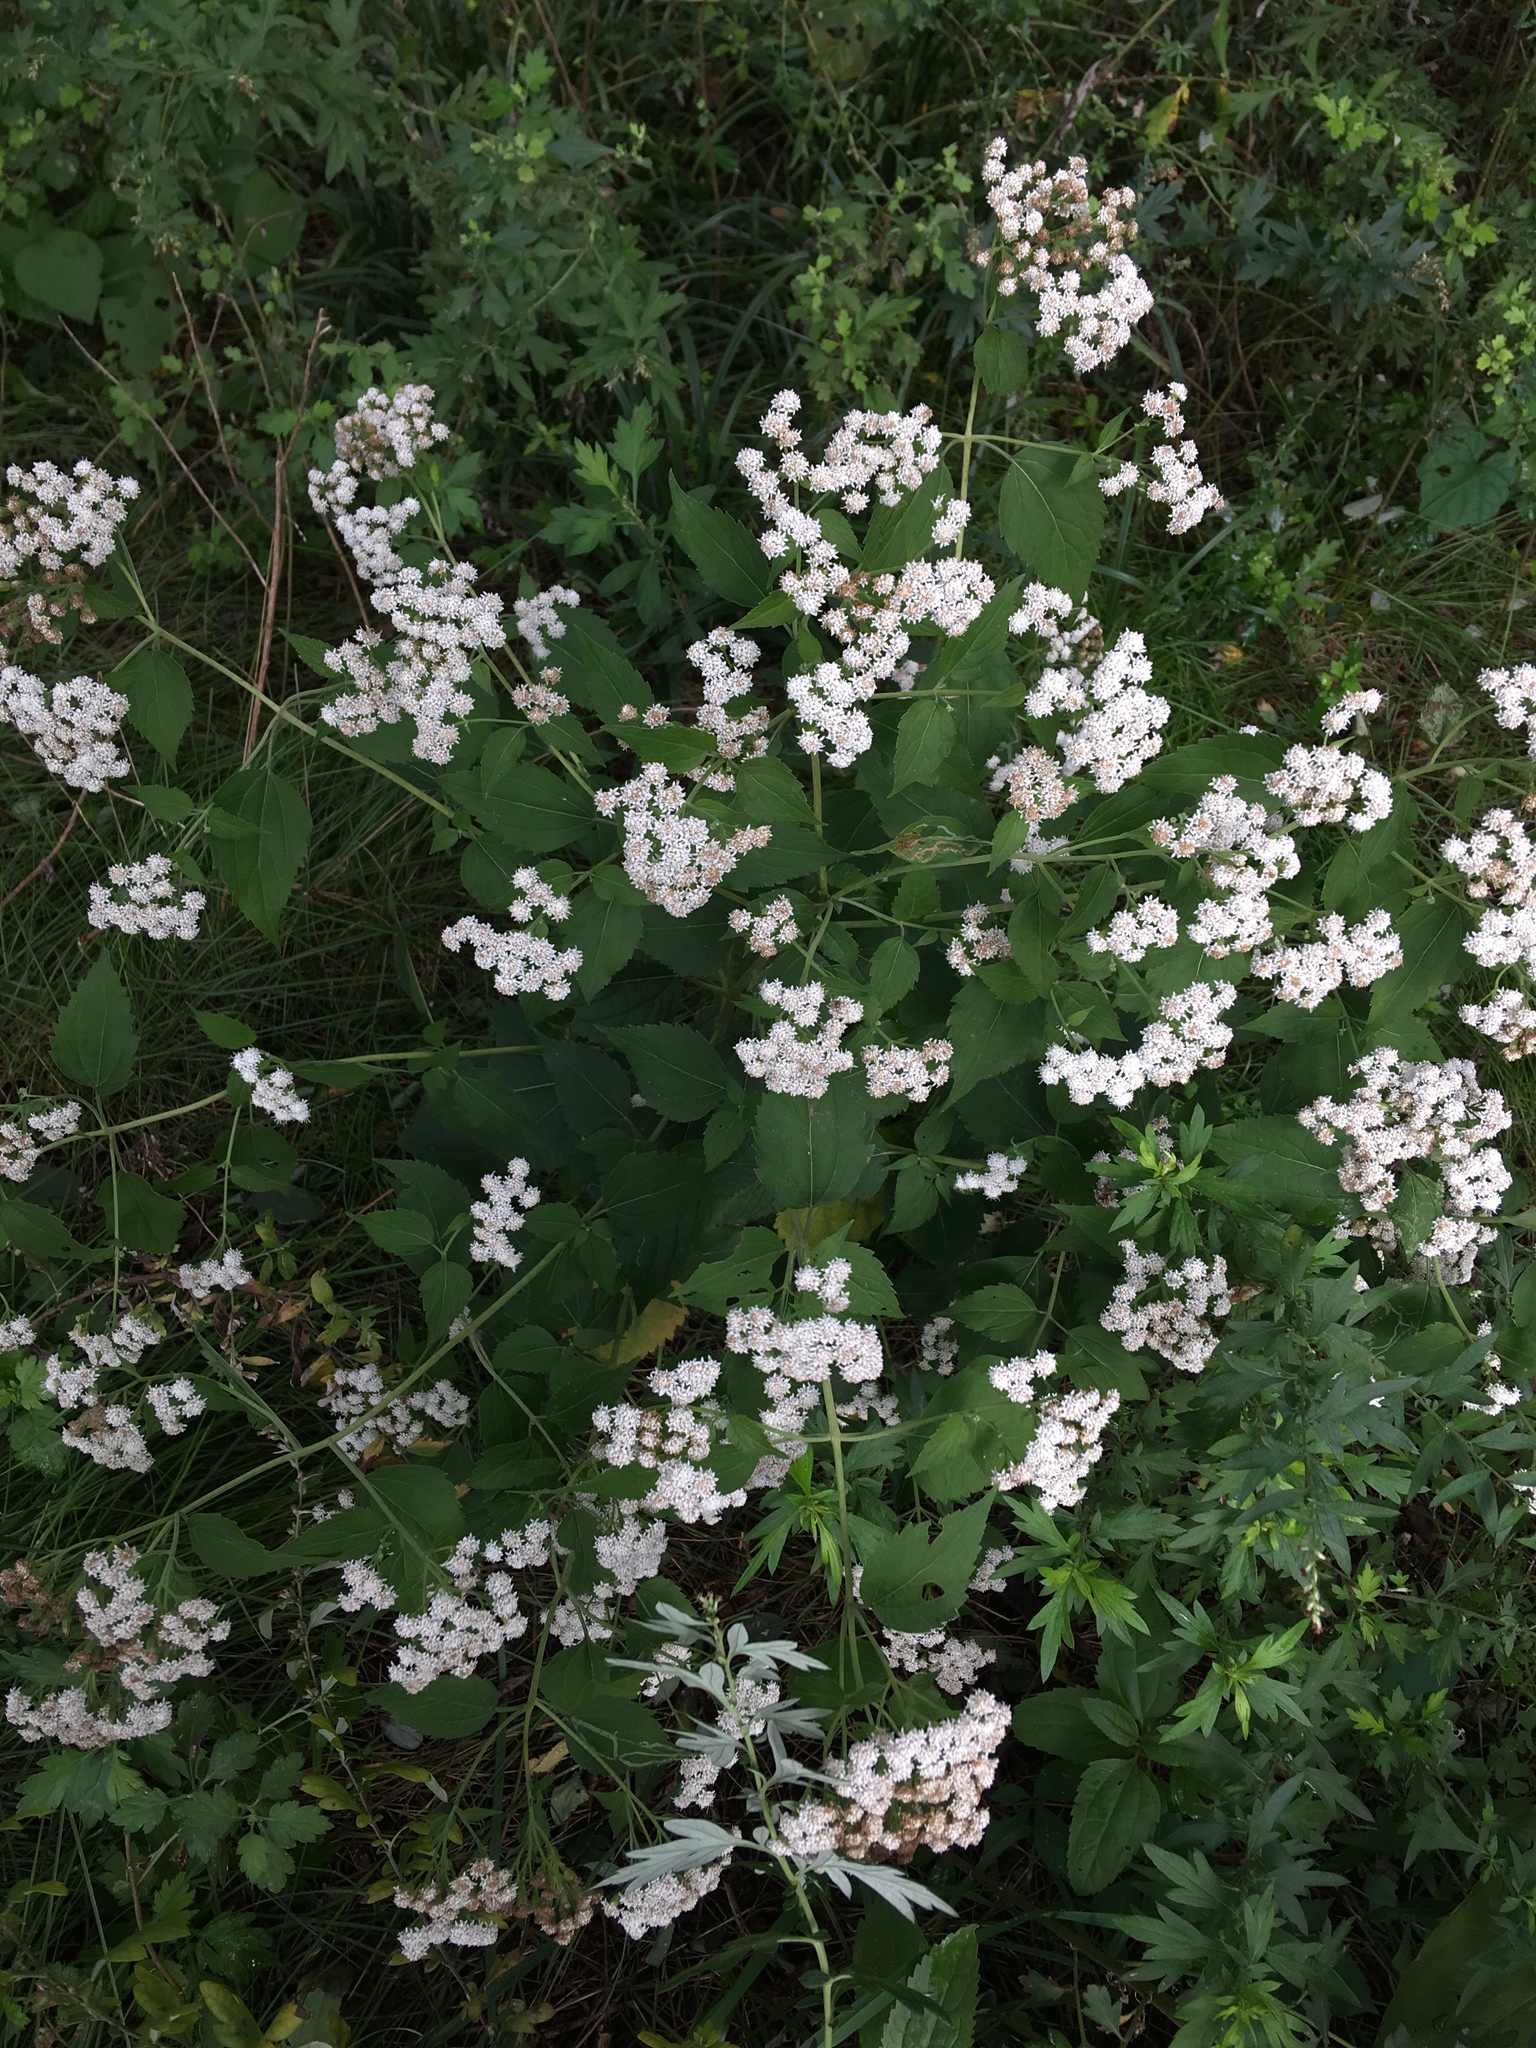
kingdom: Plantae
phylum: Tracheophyta
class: Magnoliopsida
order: Asterales
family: Asteraceae
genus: Ageratina
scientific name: Ageratina altissima
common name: White snakeroot
